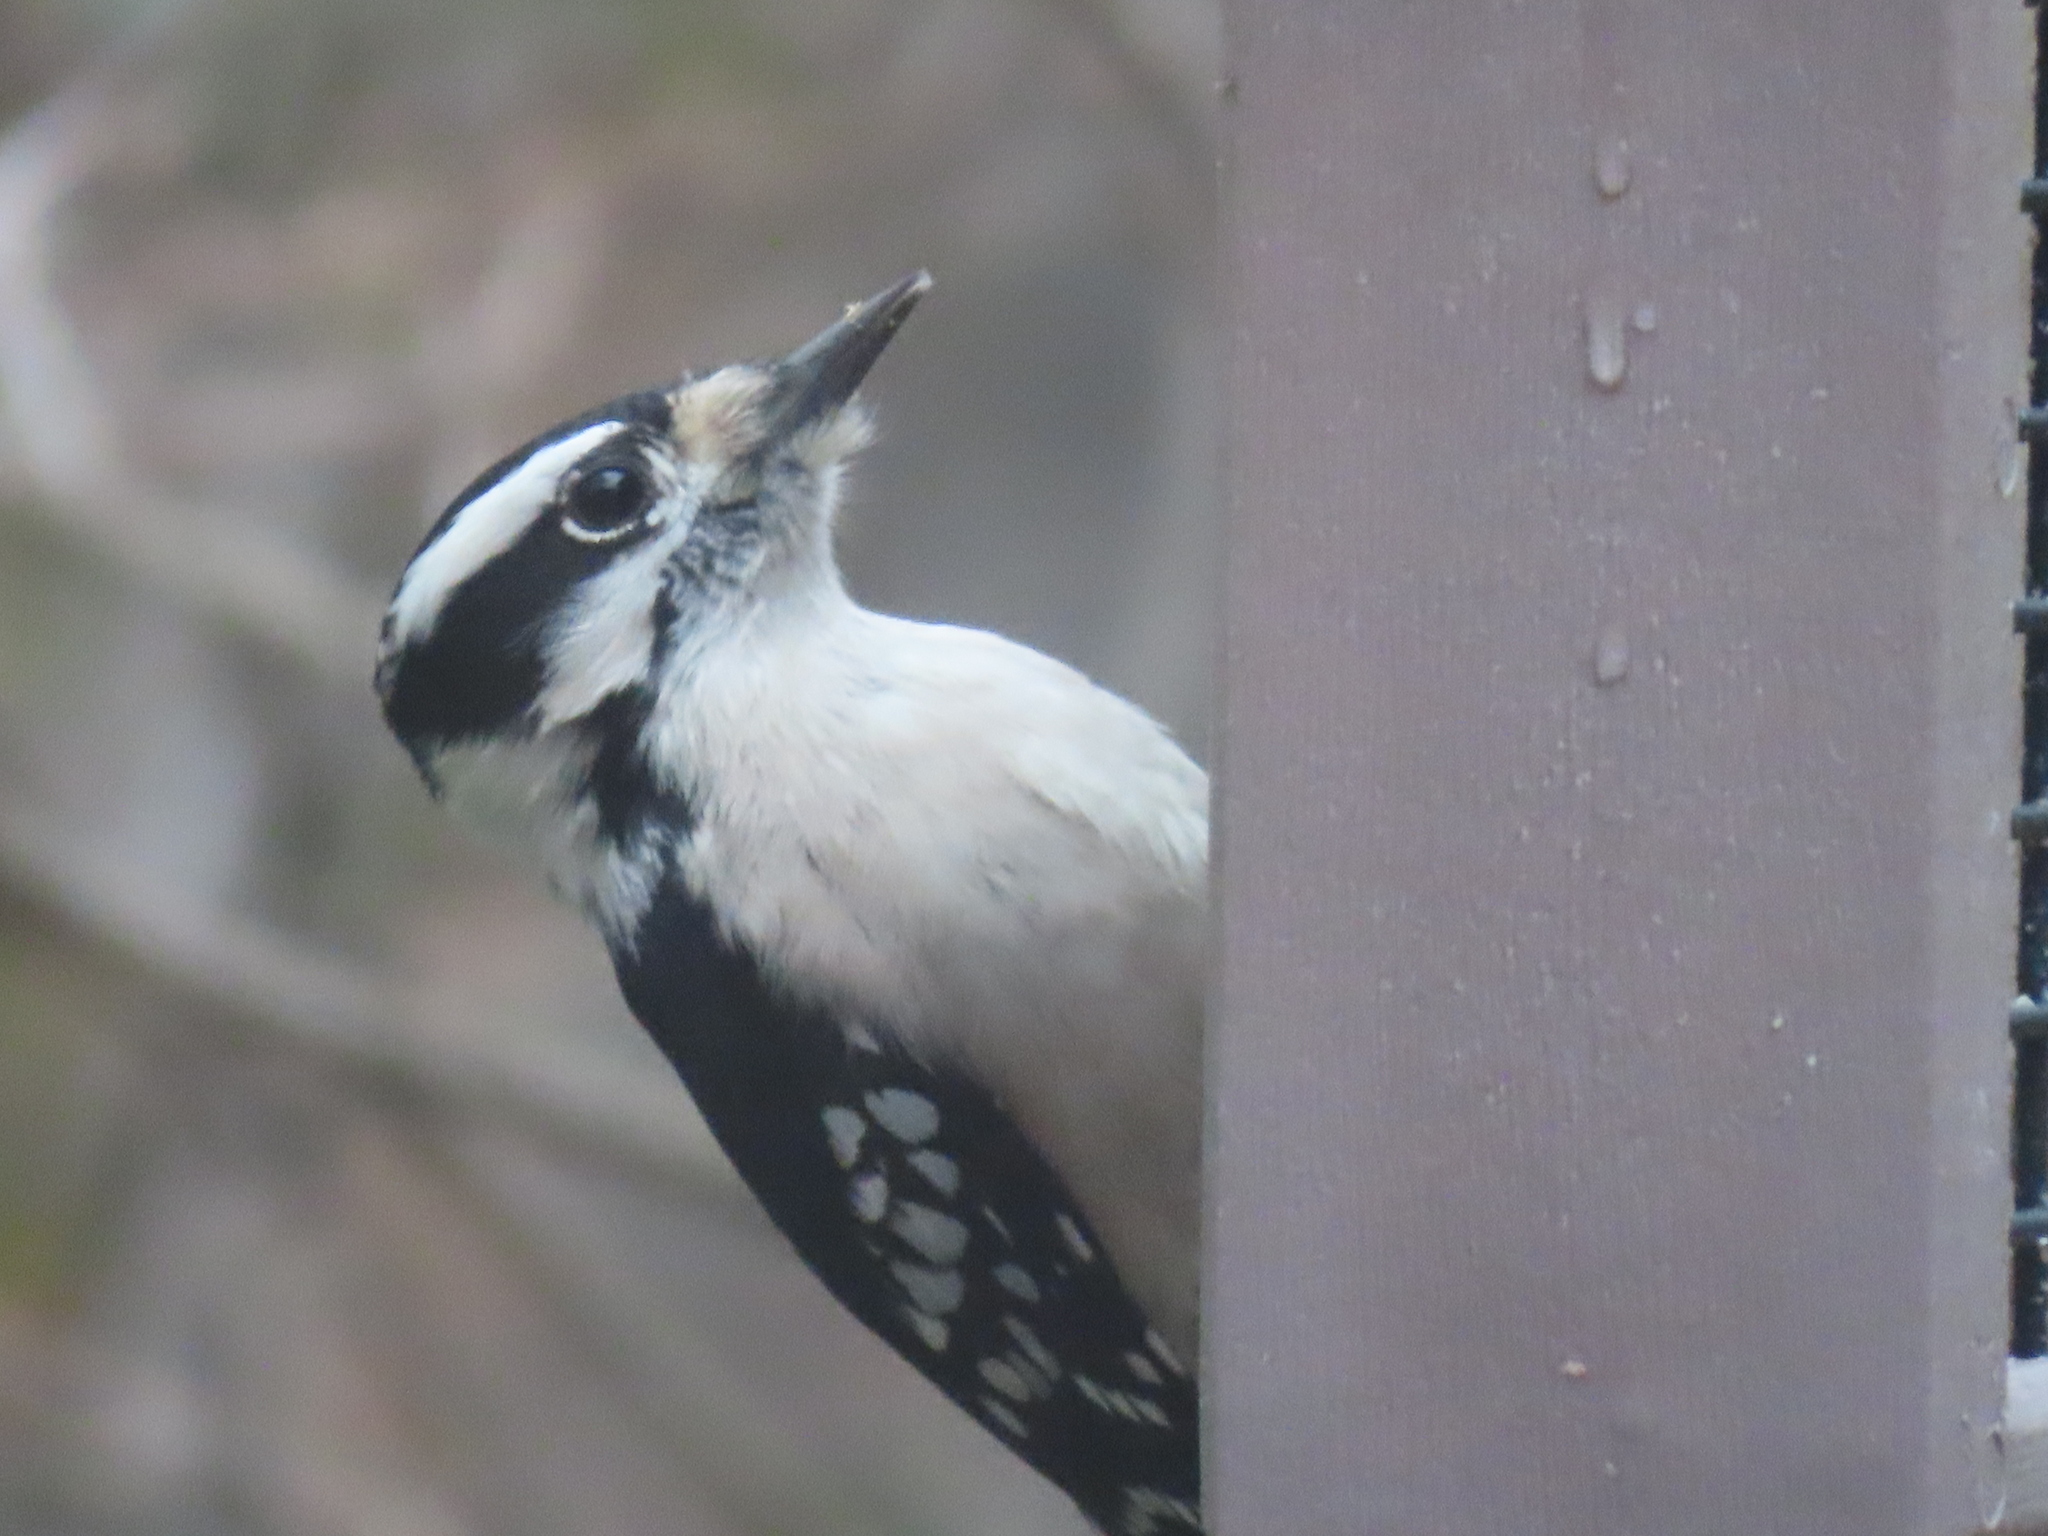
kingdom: Animalia
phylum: Chordata
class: Aves
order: Piciformes
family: Picidae
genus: Dryobates
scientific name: Dryobates pubescens
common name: Downy woodpecker
